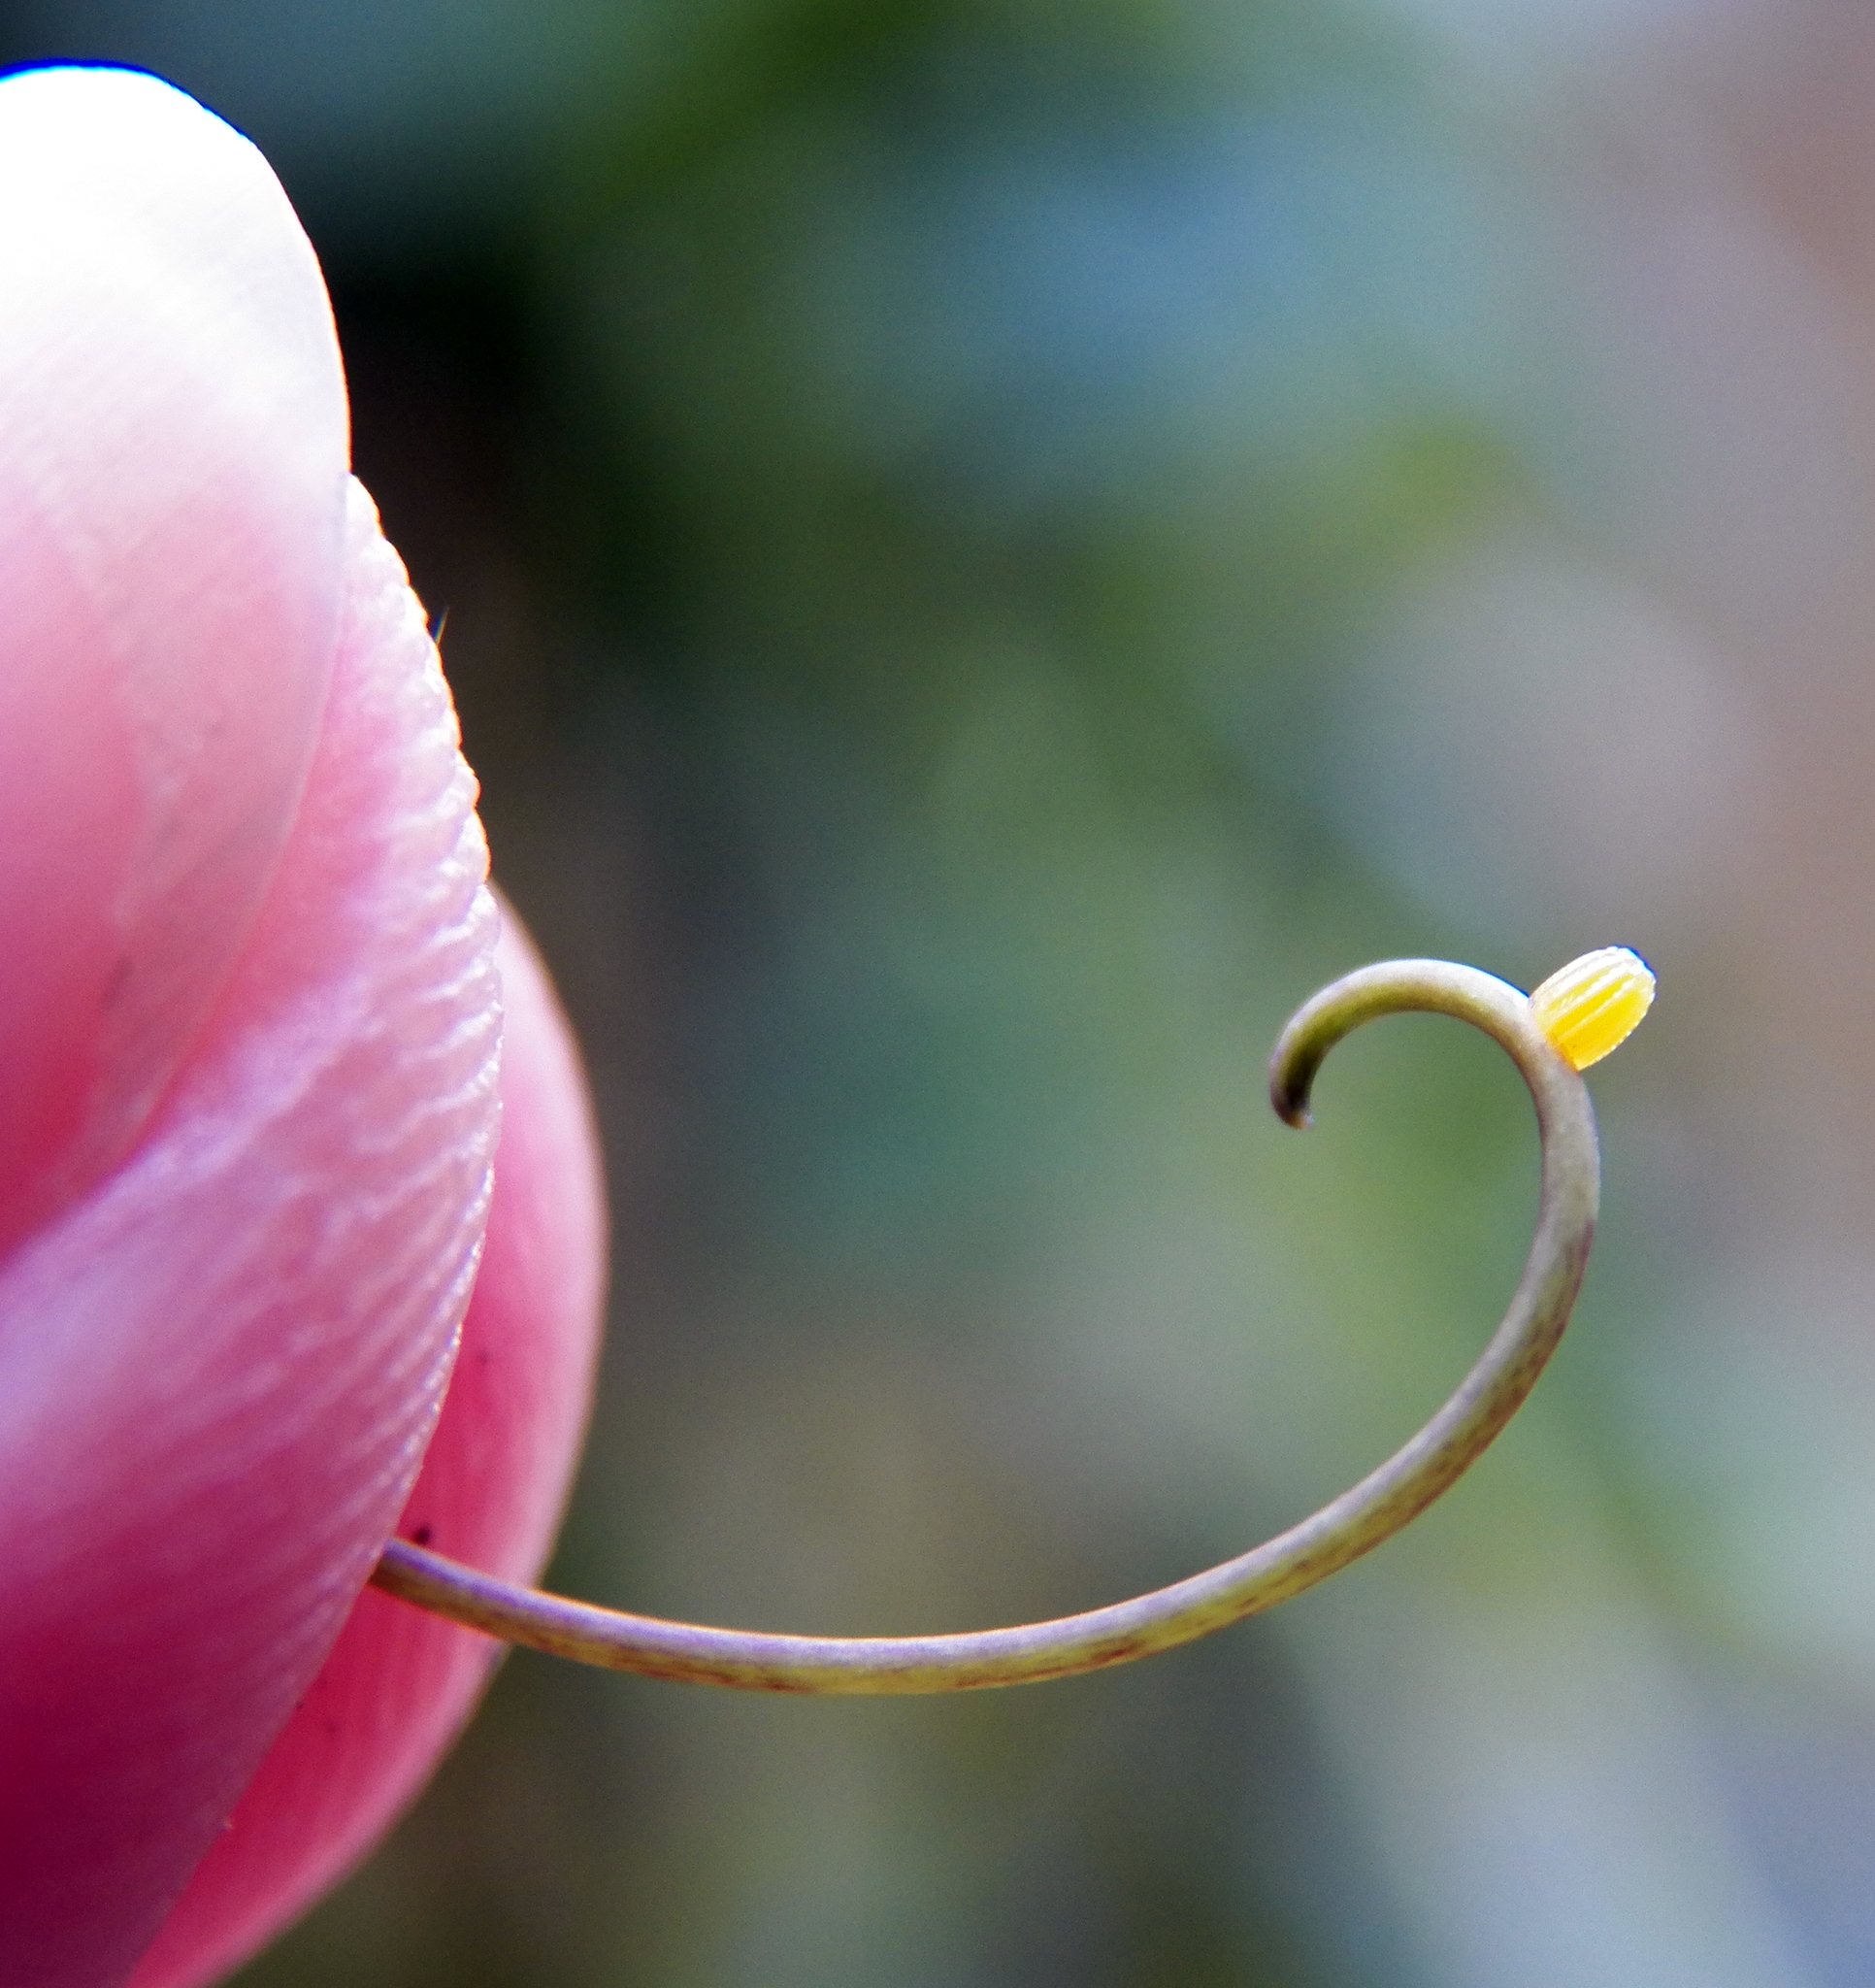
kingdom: Animalia
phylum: Arthropoda
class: Insecta
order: Lepidoptera
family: Nymphalidae
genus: Dione
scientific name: Dione vanillae
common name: Gulf fritillary
